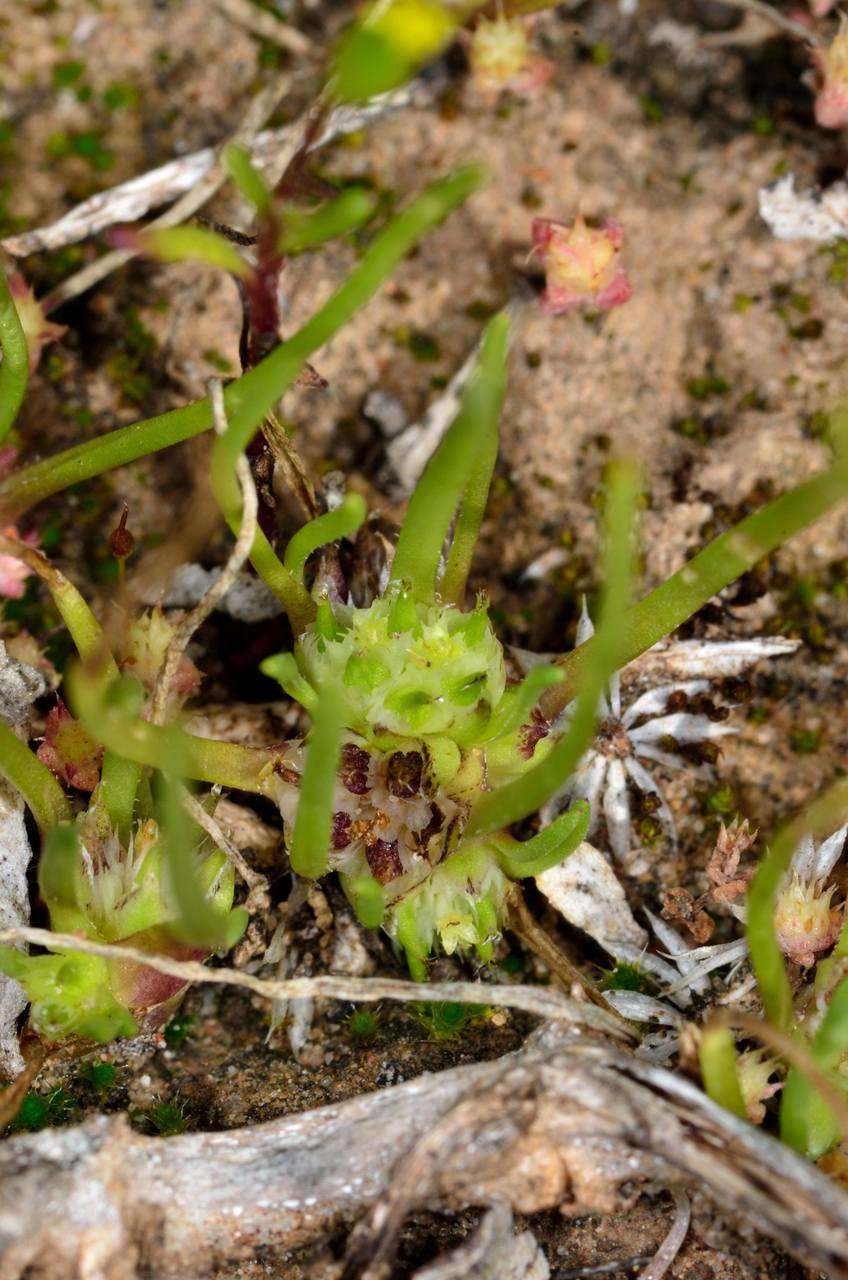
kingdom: Plantae
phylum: Tracheophyta
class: Magnoliopsida
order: Asterales
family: Asteraceae
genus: Isoetopsis
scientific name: Isoetopsis graminifolia
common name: Grass-cushion
